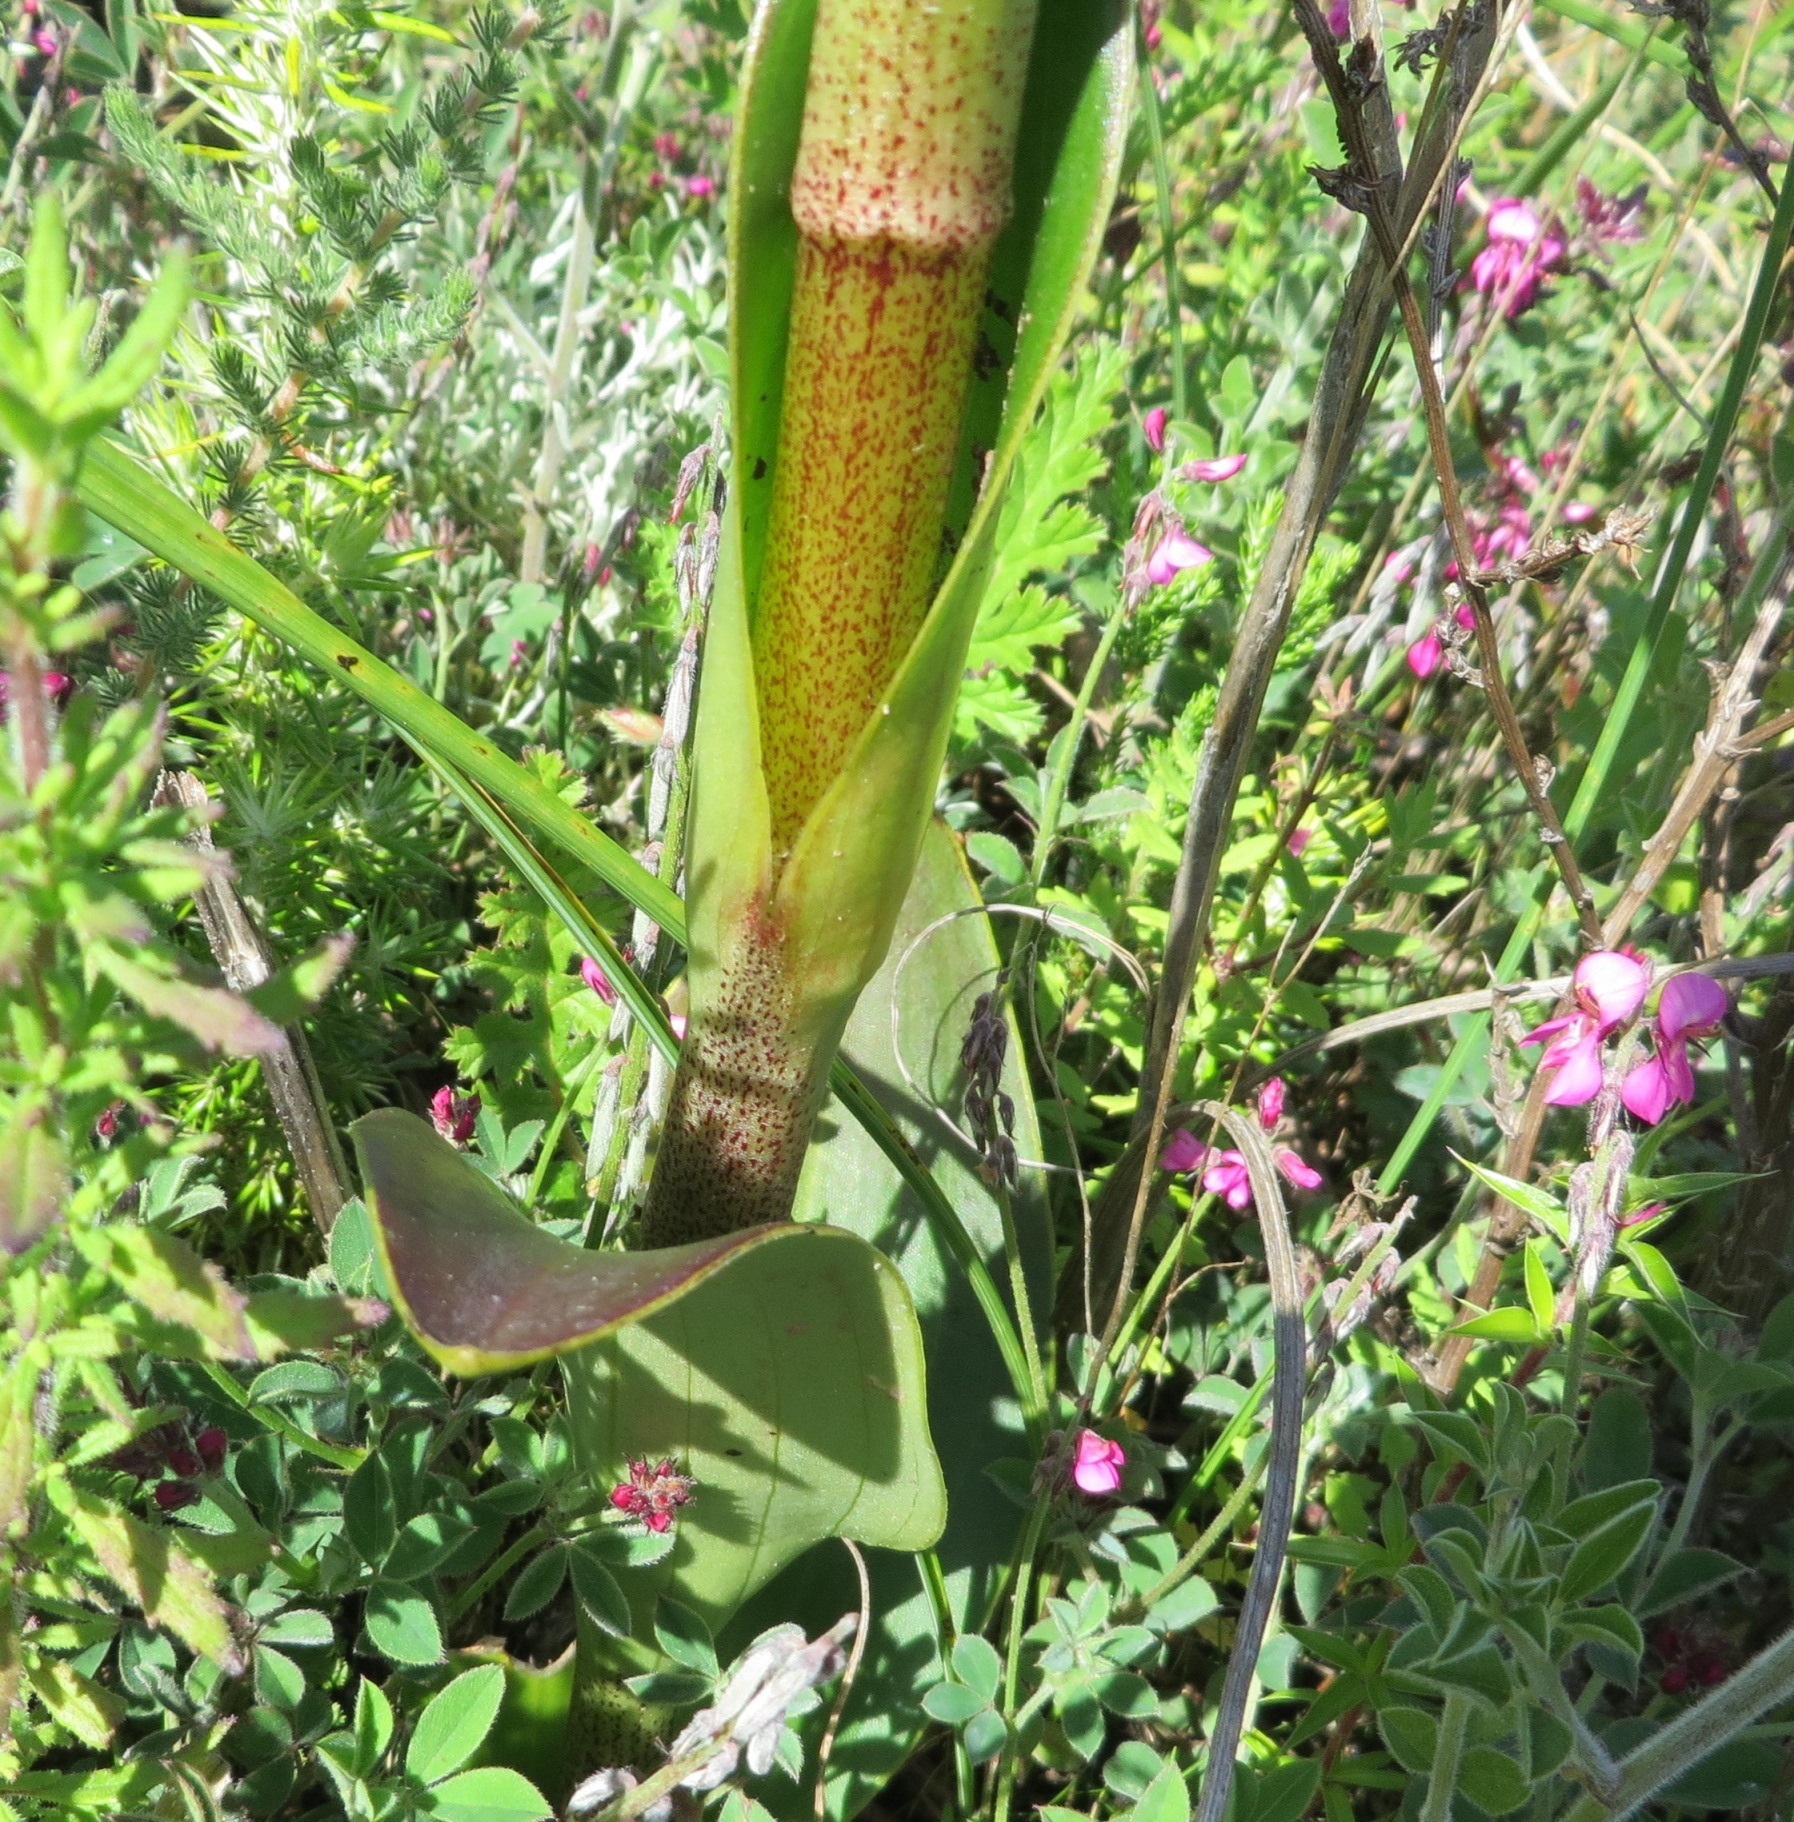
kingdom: Plantae
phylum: Tracheophyta
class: Liliopsida
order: Asparagales
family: Orchidaceae
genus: Satyrium
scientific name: Satyrium coriifolium
